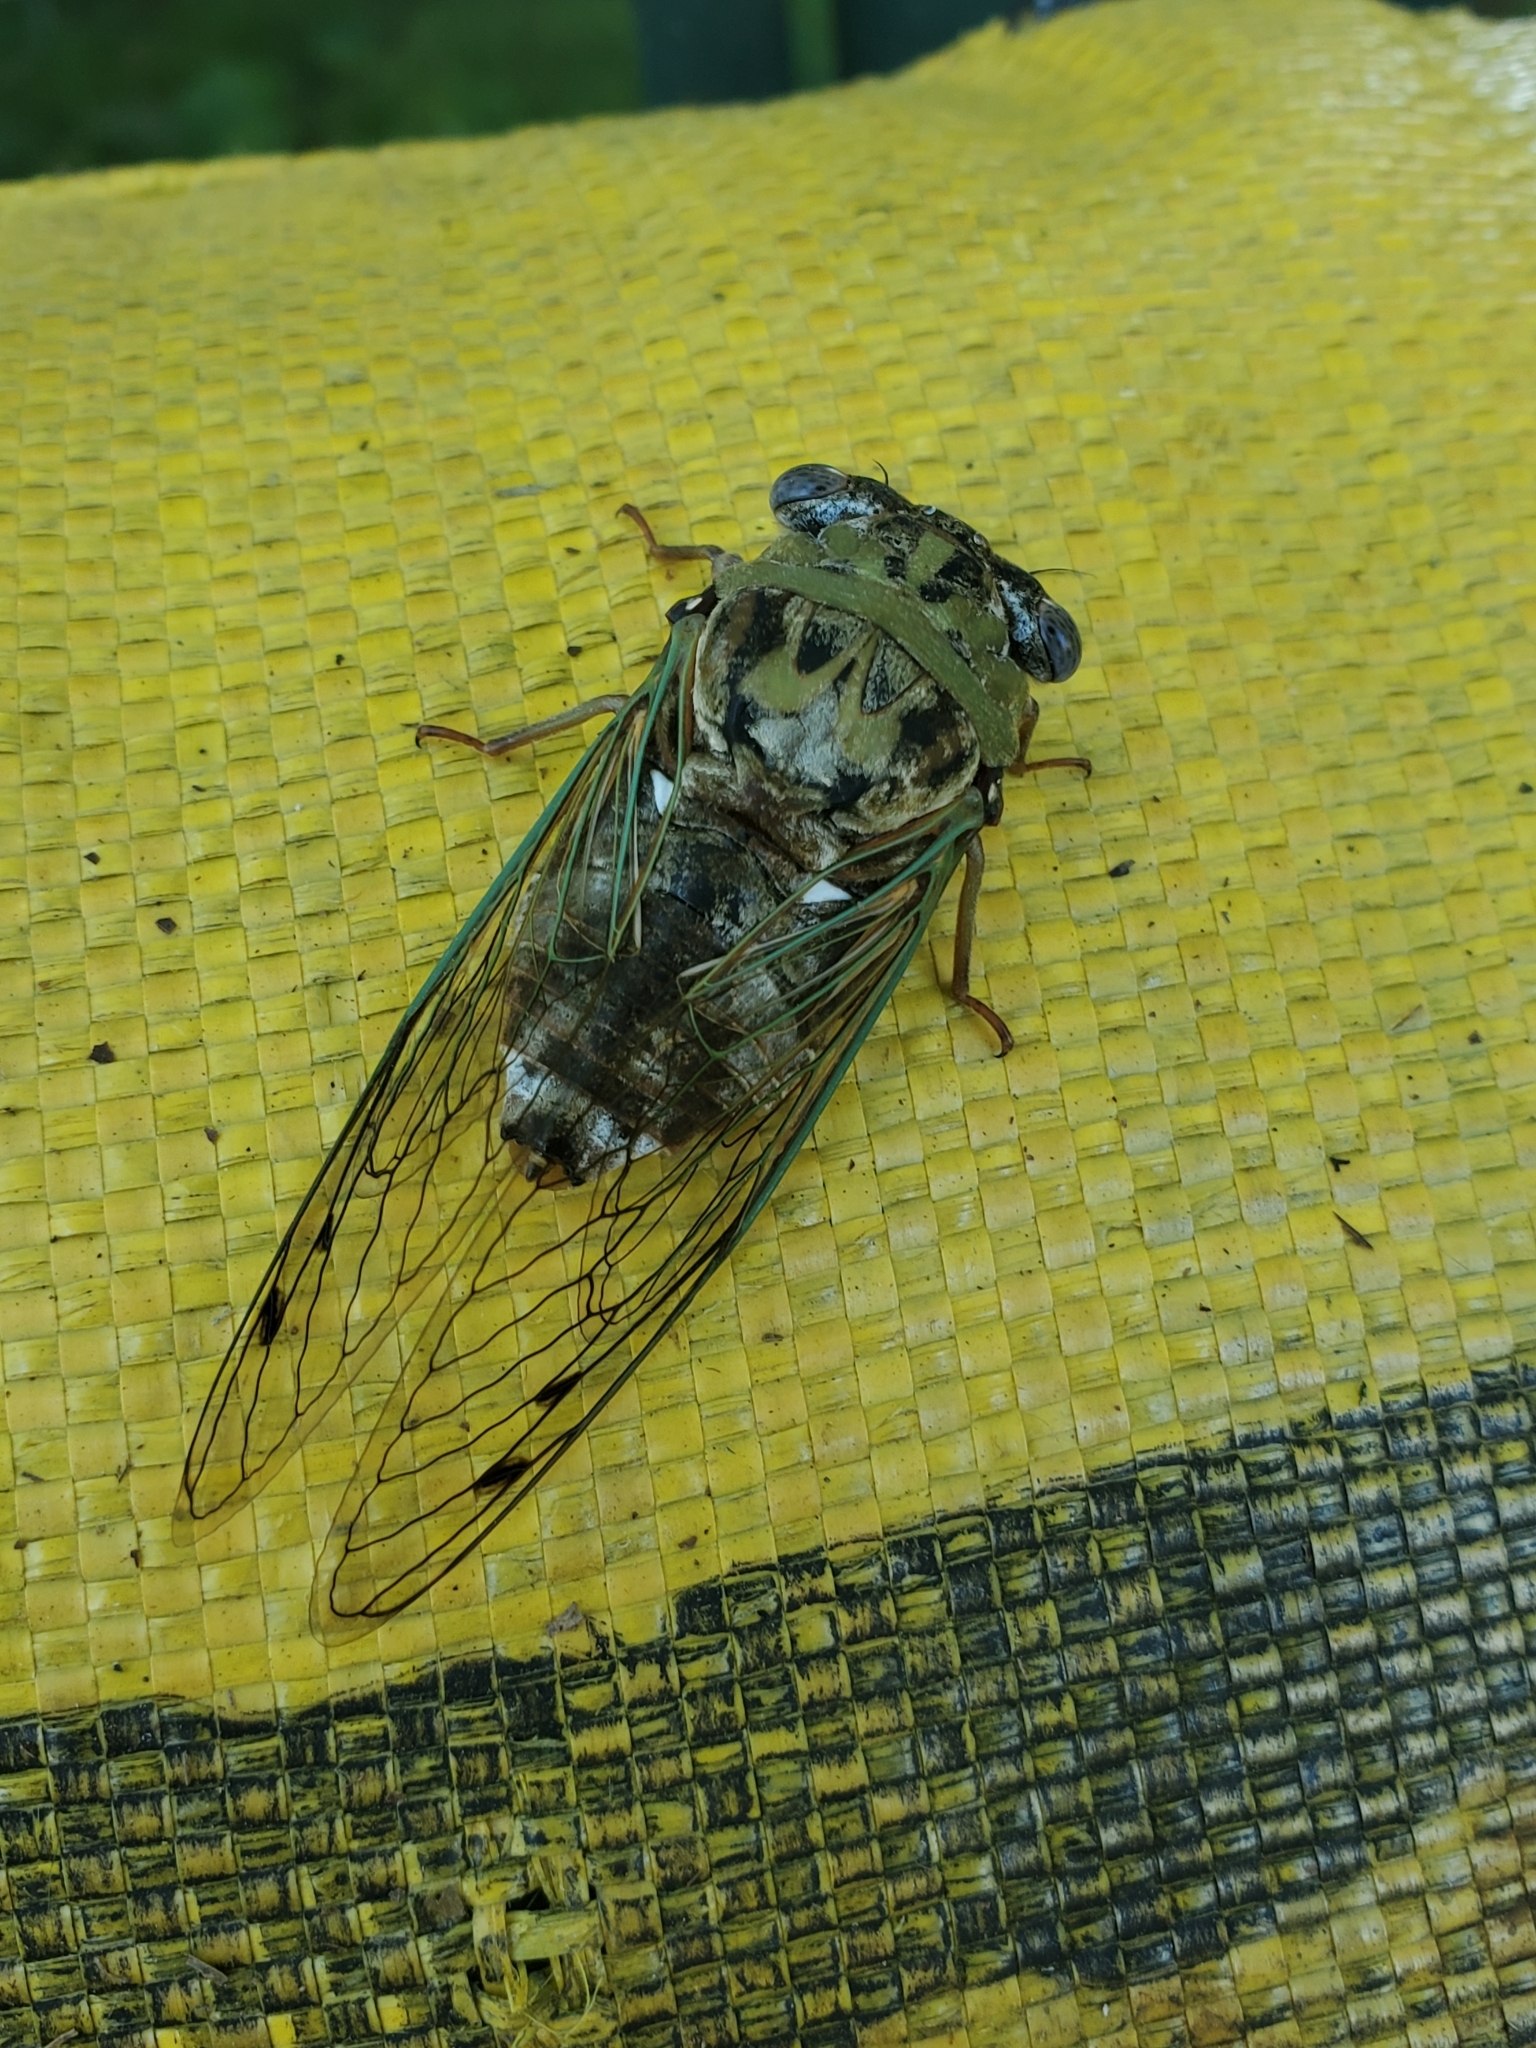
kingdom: Animalia
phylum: Arthropoda
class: Insecta
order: Hemiptera
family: Cicadidae
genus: Megatibicen
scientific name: Megatibicen resh
